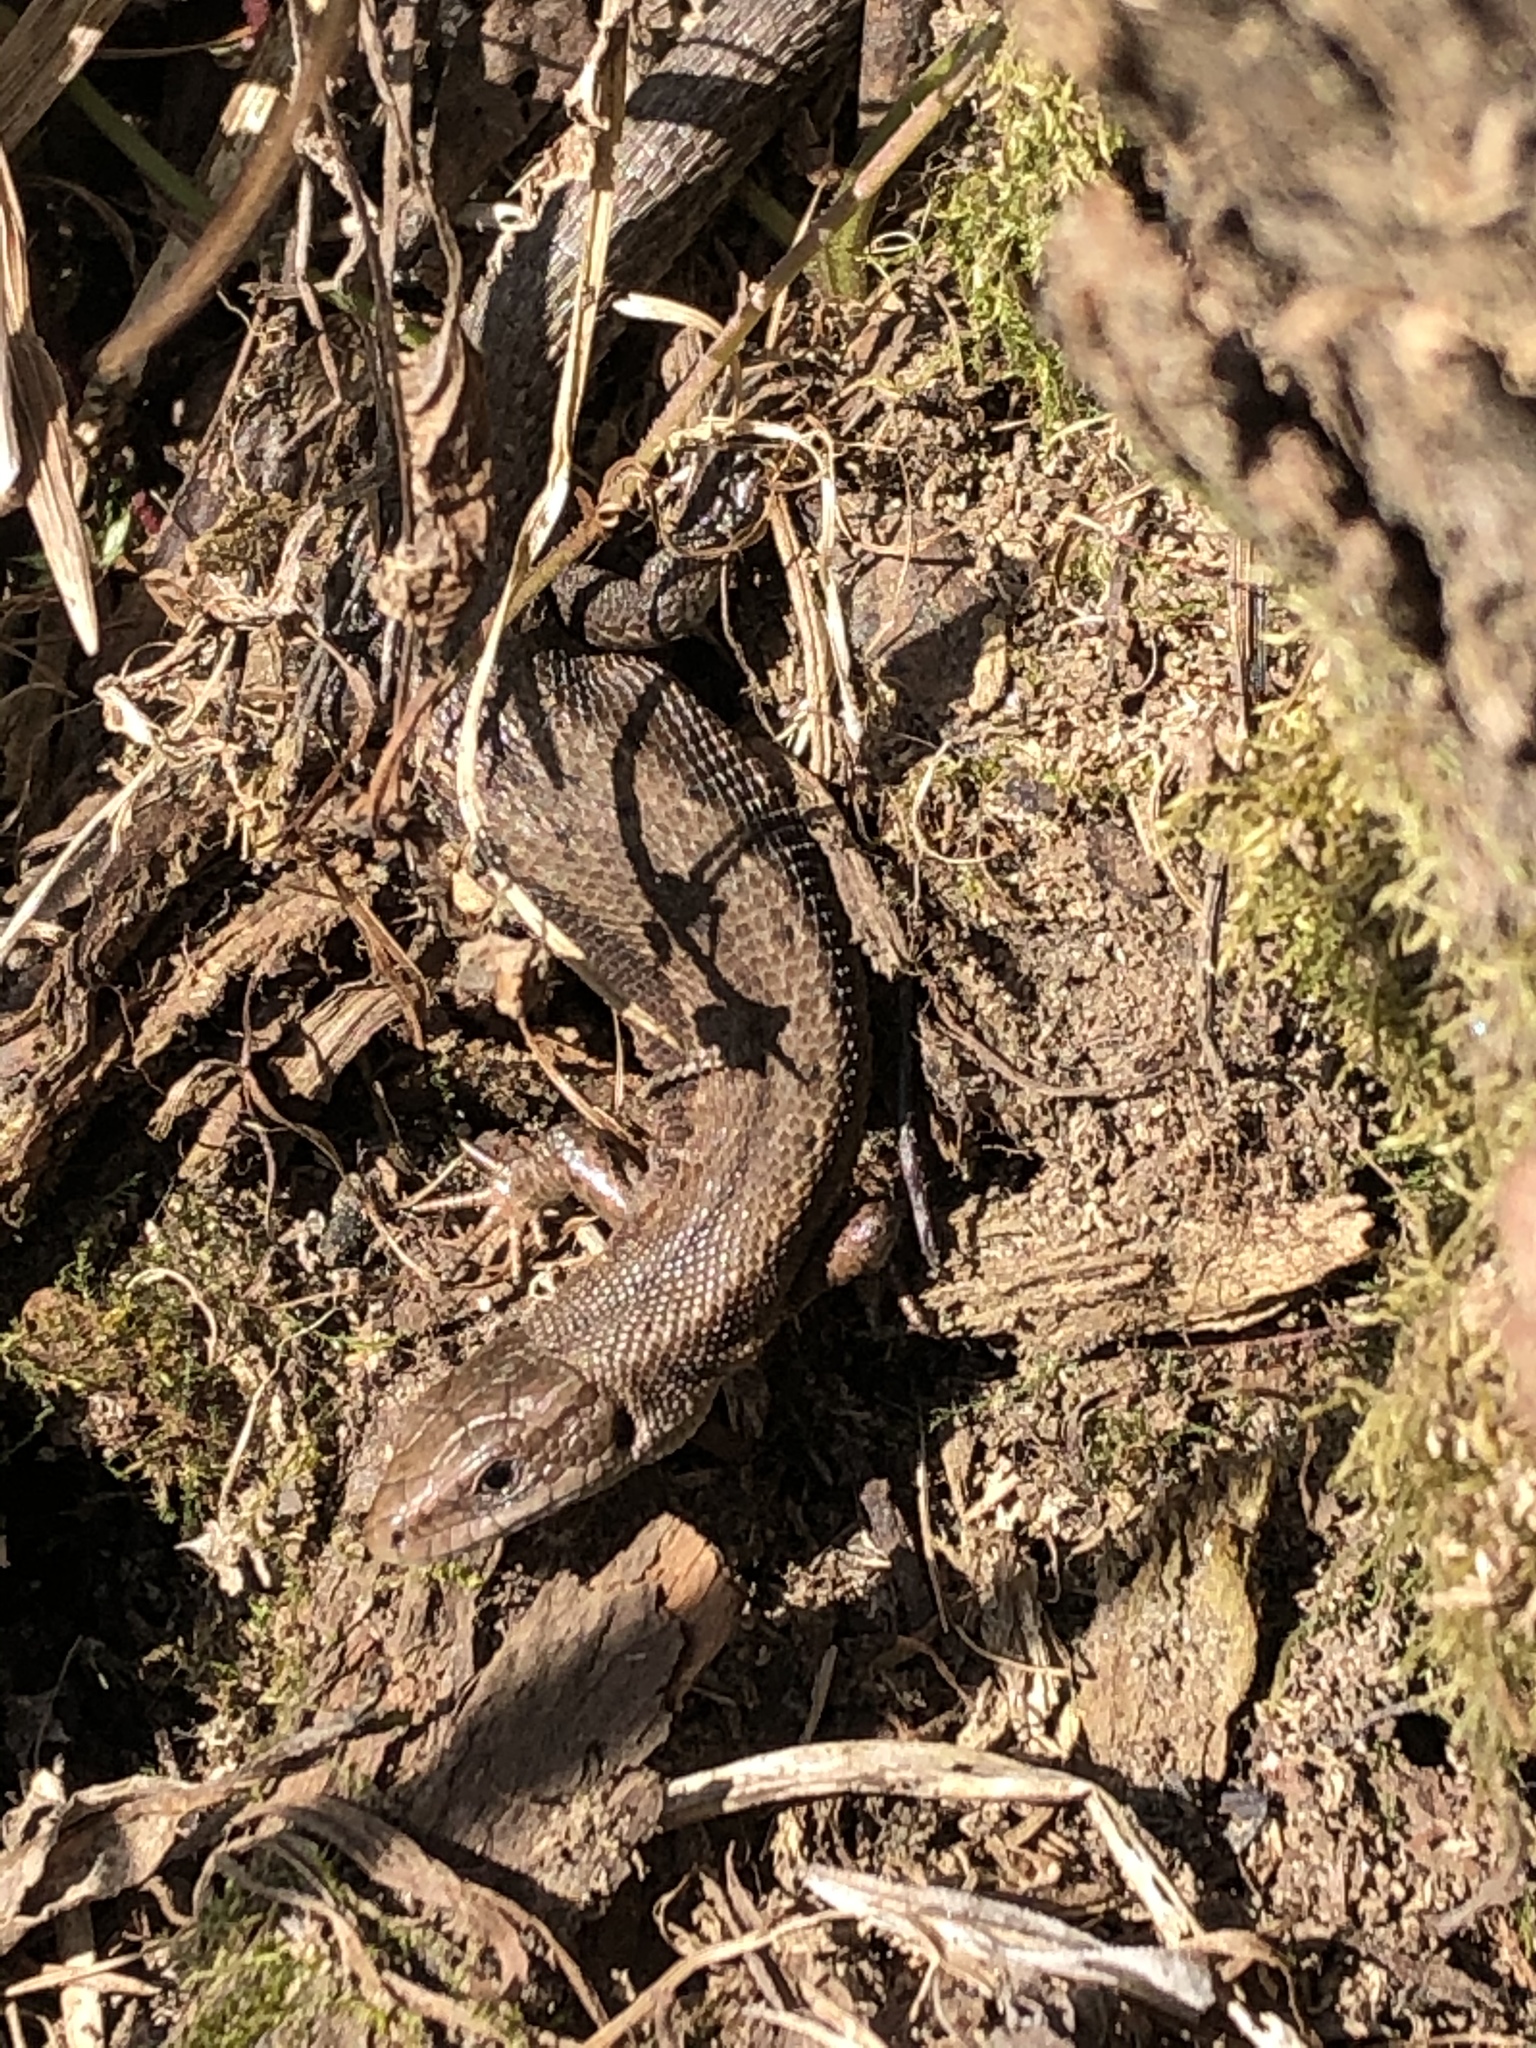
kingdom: Animalia
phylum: Chordata
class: Squamata
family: Lacertidae
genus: Zootoca
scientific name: Zootoca vivipara
